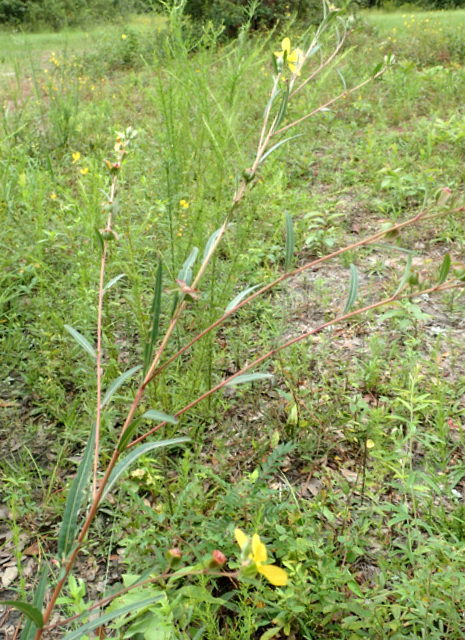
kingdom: Plantae
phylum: Tracheophyta
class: Magnoliopsida
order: Myrtales
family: Onagraceae
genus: Ludwigia
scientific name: Ludwigia maritima
